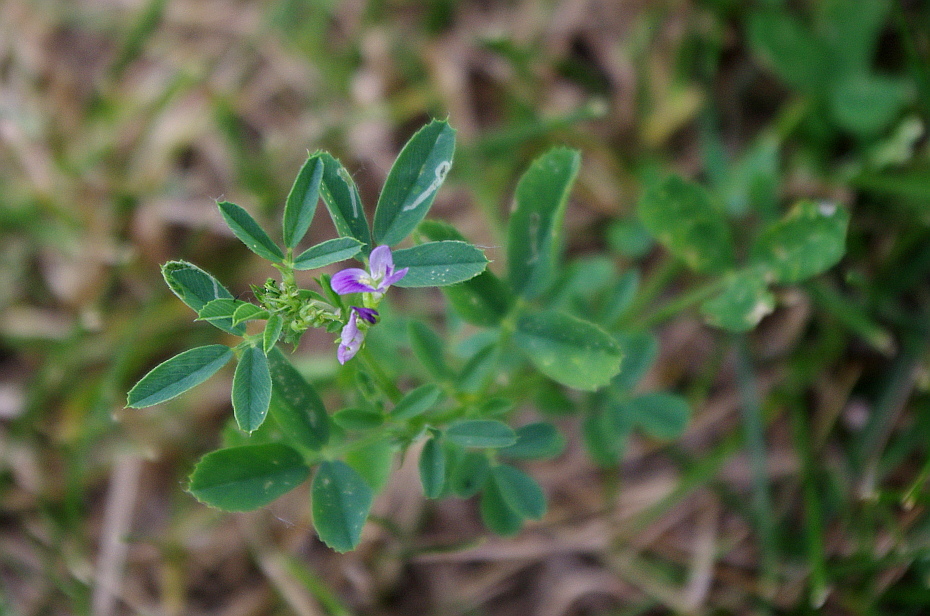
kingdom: Plantae
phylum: Tracheophyta
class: Magnoliopsida
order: Fabales
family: Fabaceae
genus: Medicago
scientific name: Medicago sativa
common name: Alfalfa
